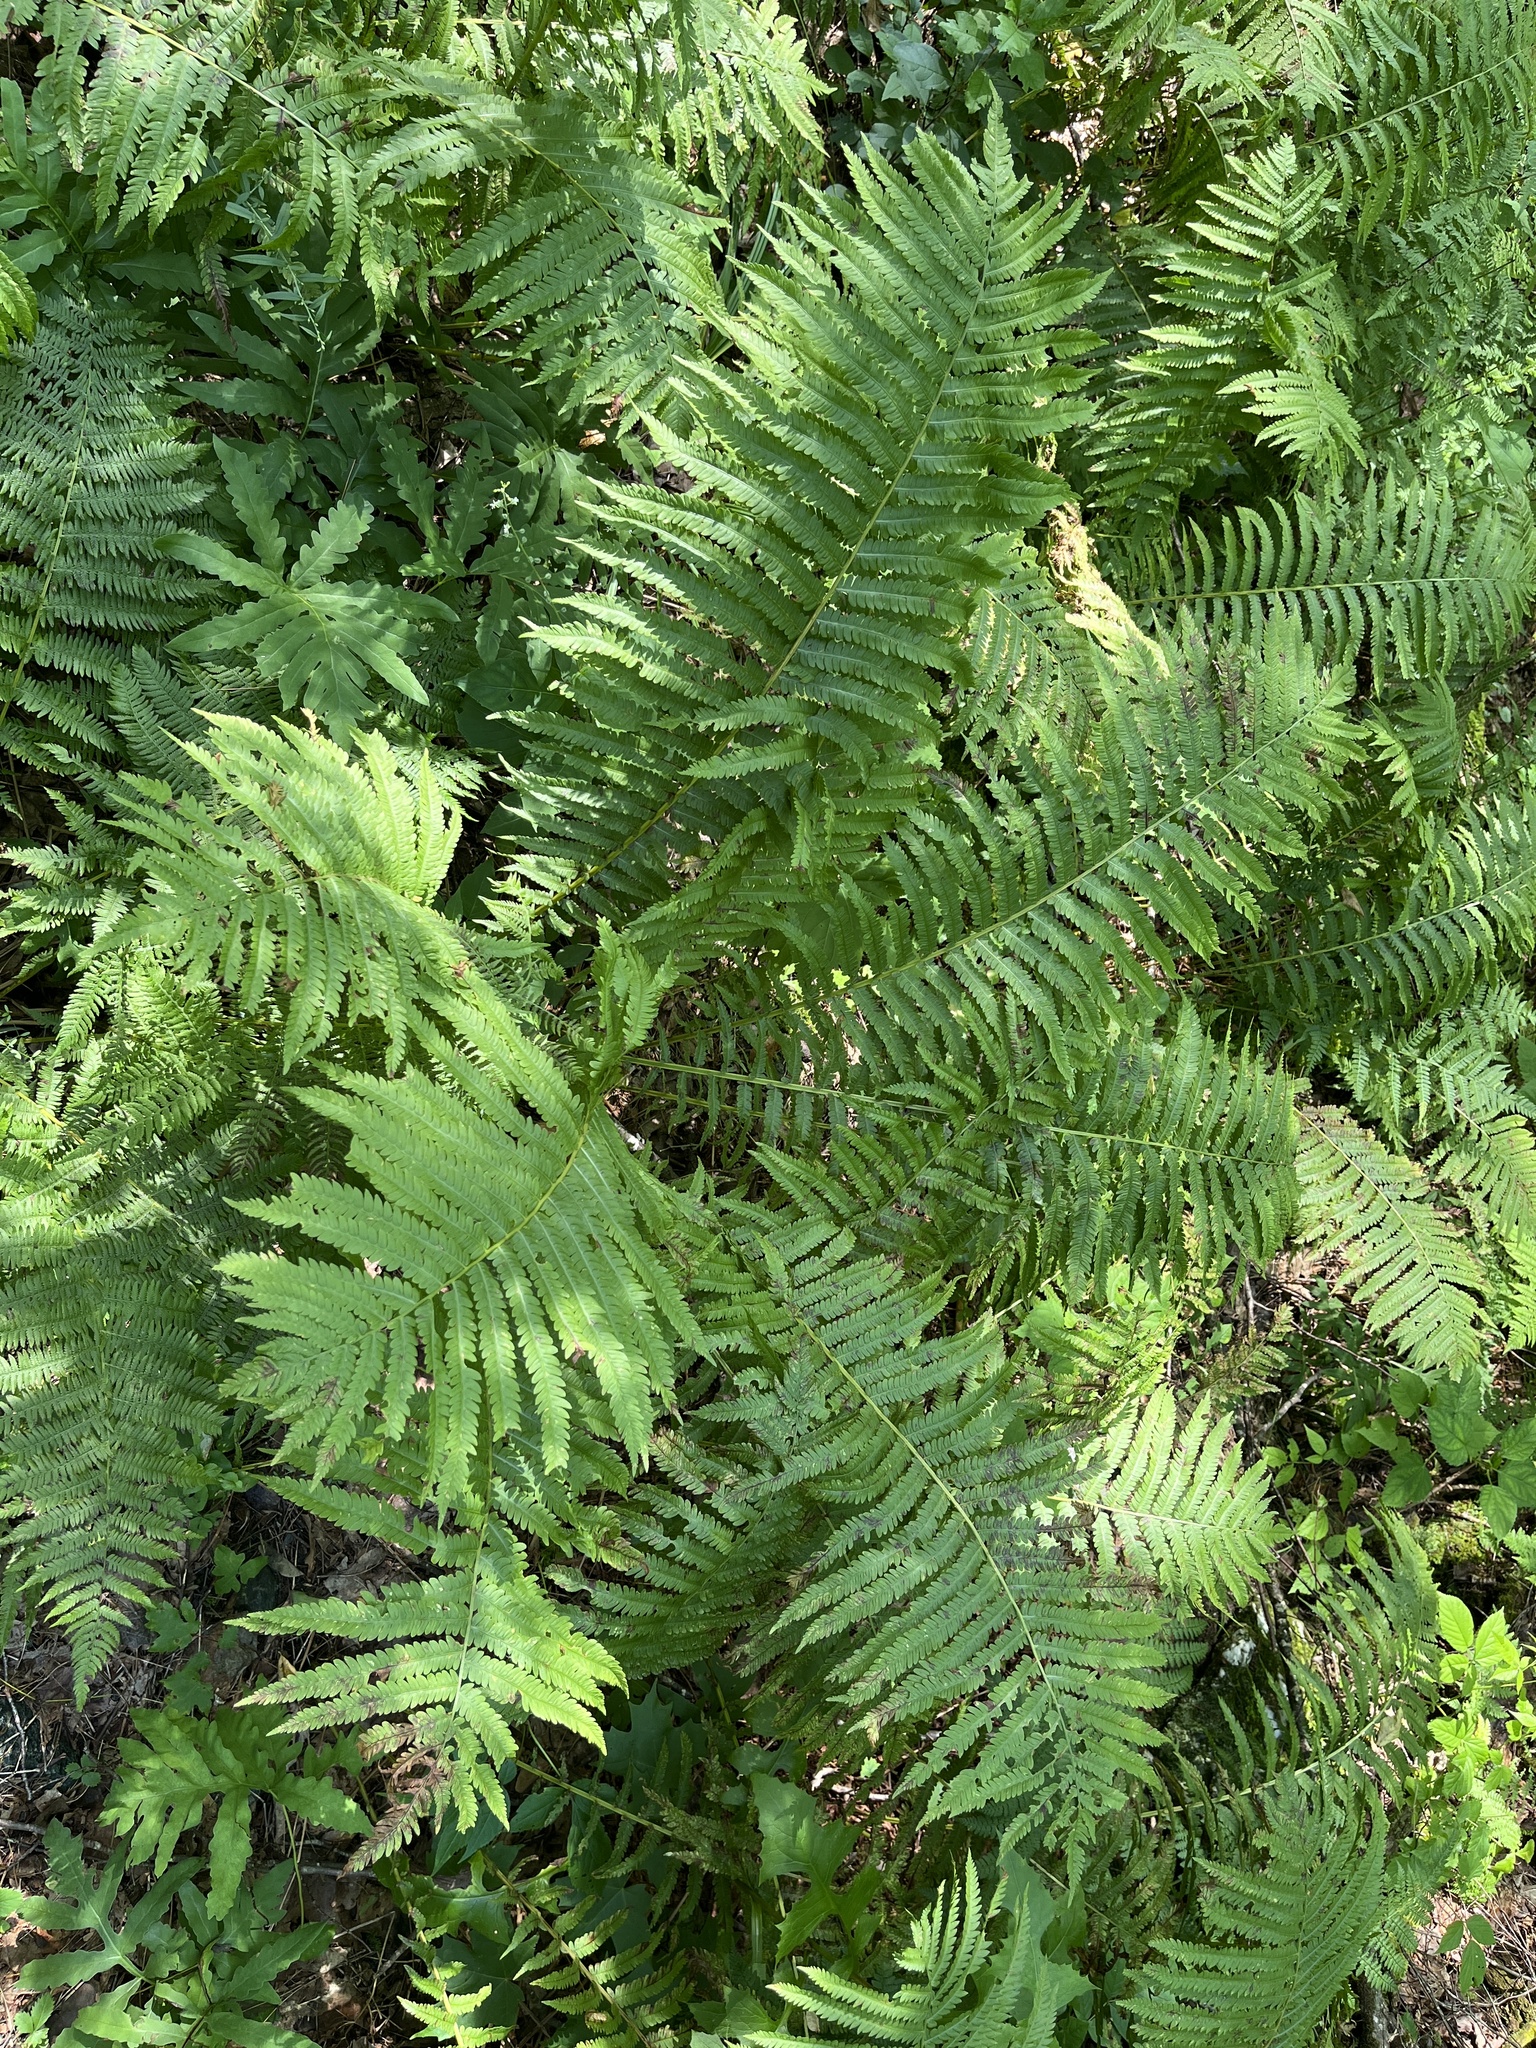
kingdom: Plantae
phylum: Tracheophyta
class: Polypodiopsida
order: Polypodiales
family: Onocleaceae
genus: Matteuccia
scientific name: Matteuccia struthiopteris
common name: Ostrich fern
